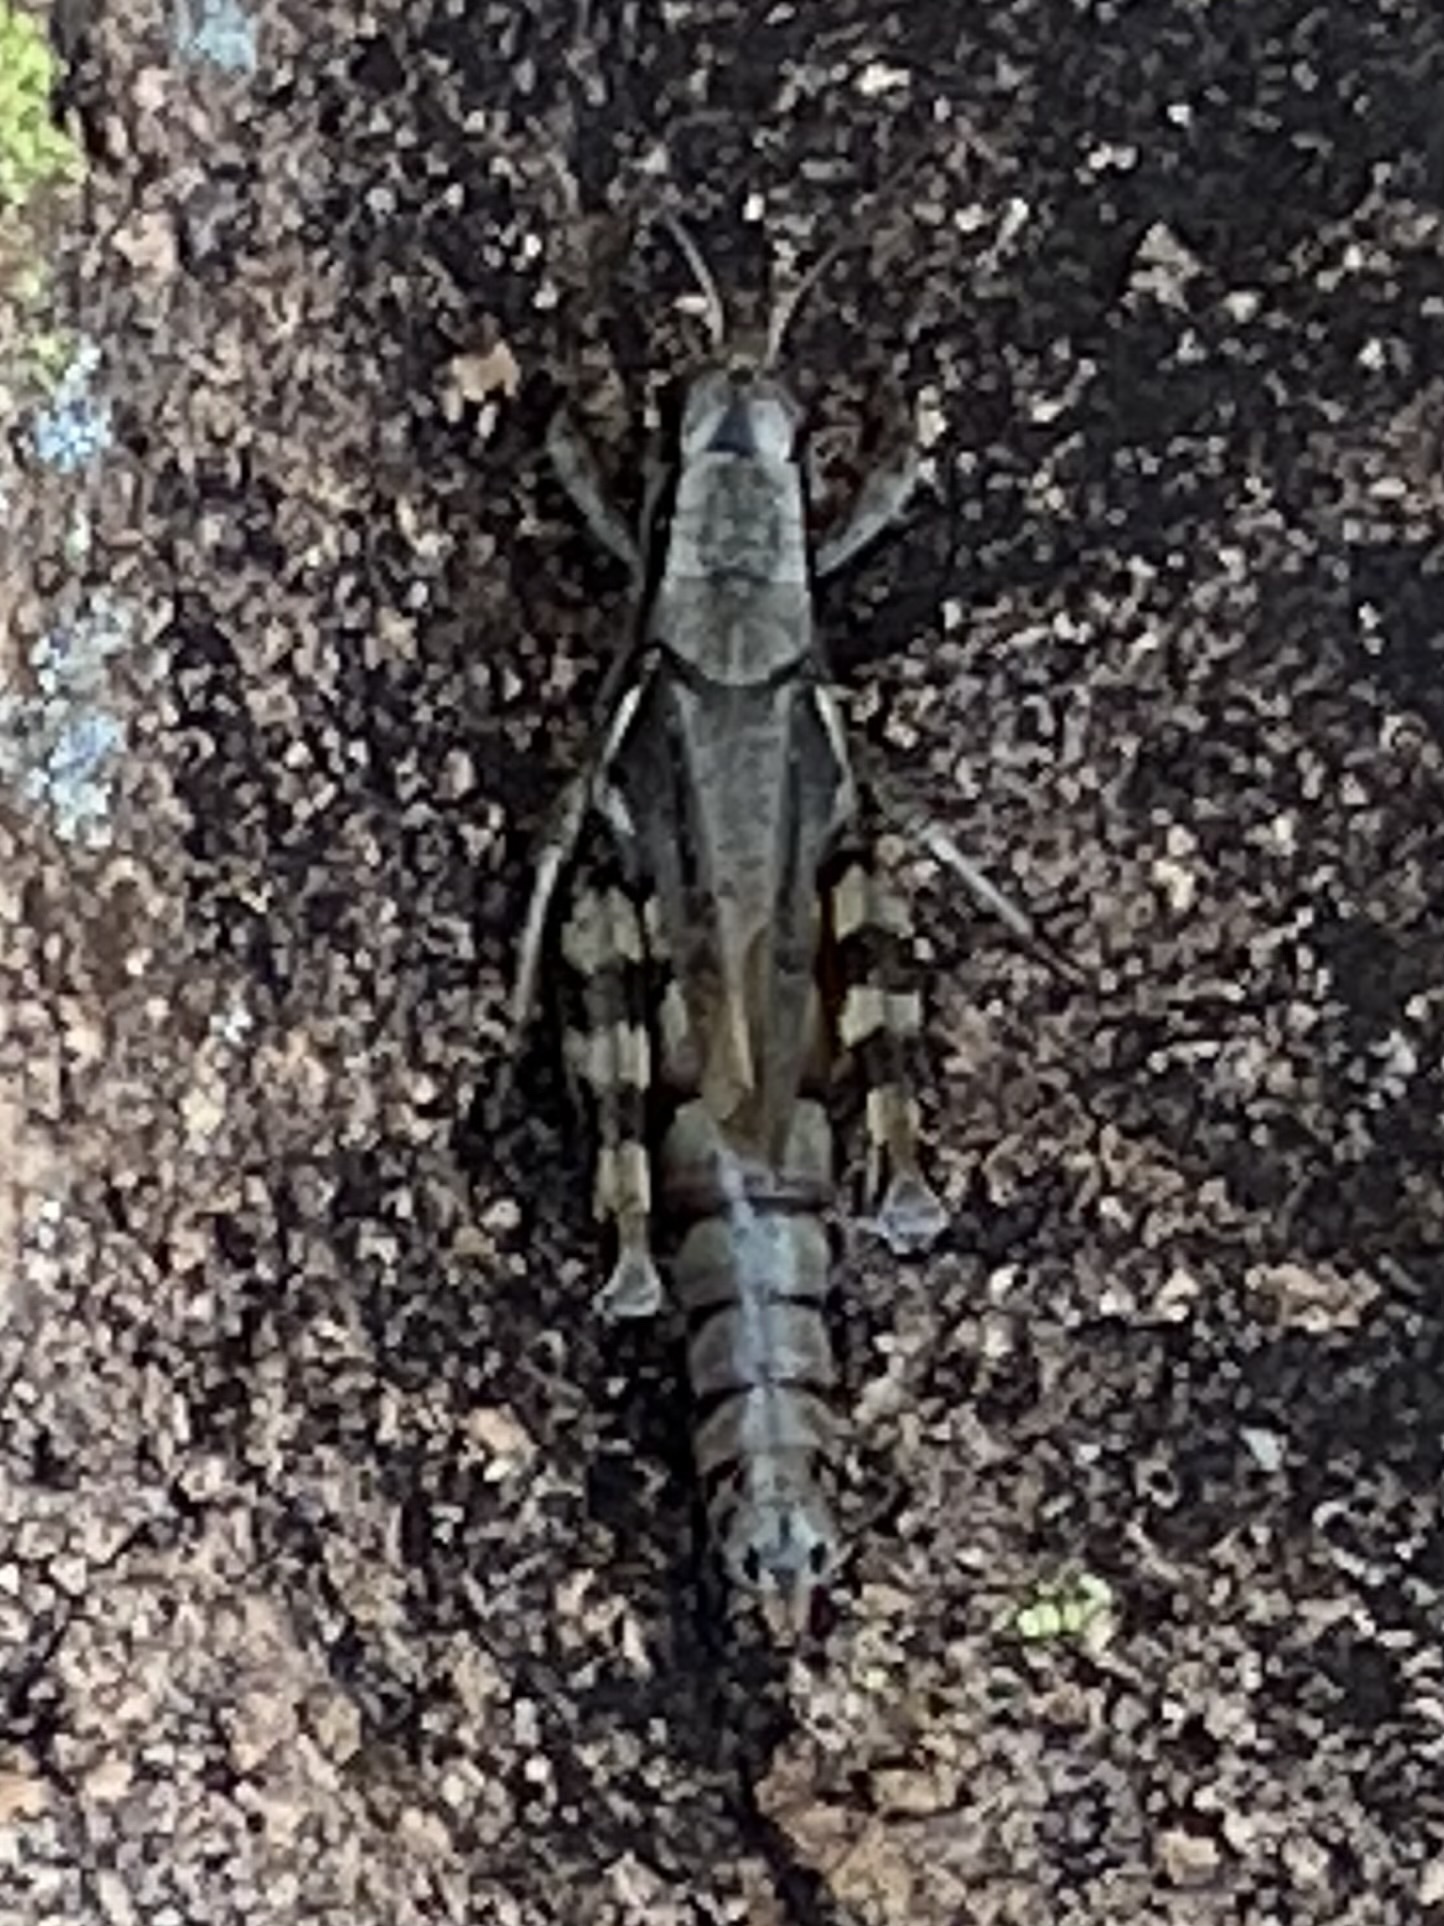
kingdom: Animalia
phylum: Arthropoda
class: Insecta
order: Orthoptera
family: Acrididae
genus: Melanoplus
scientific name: Melanoplus ponderosus
